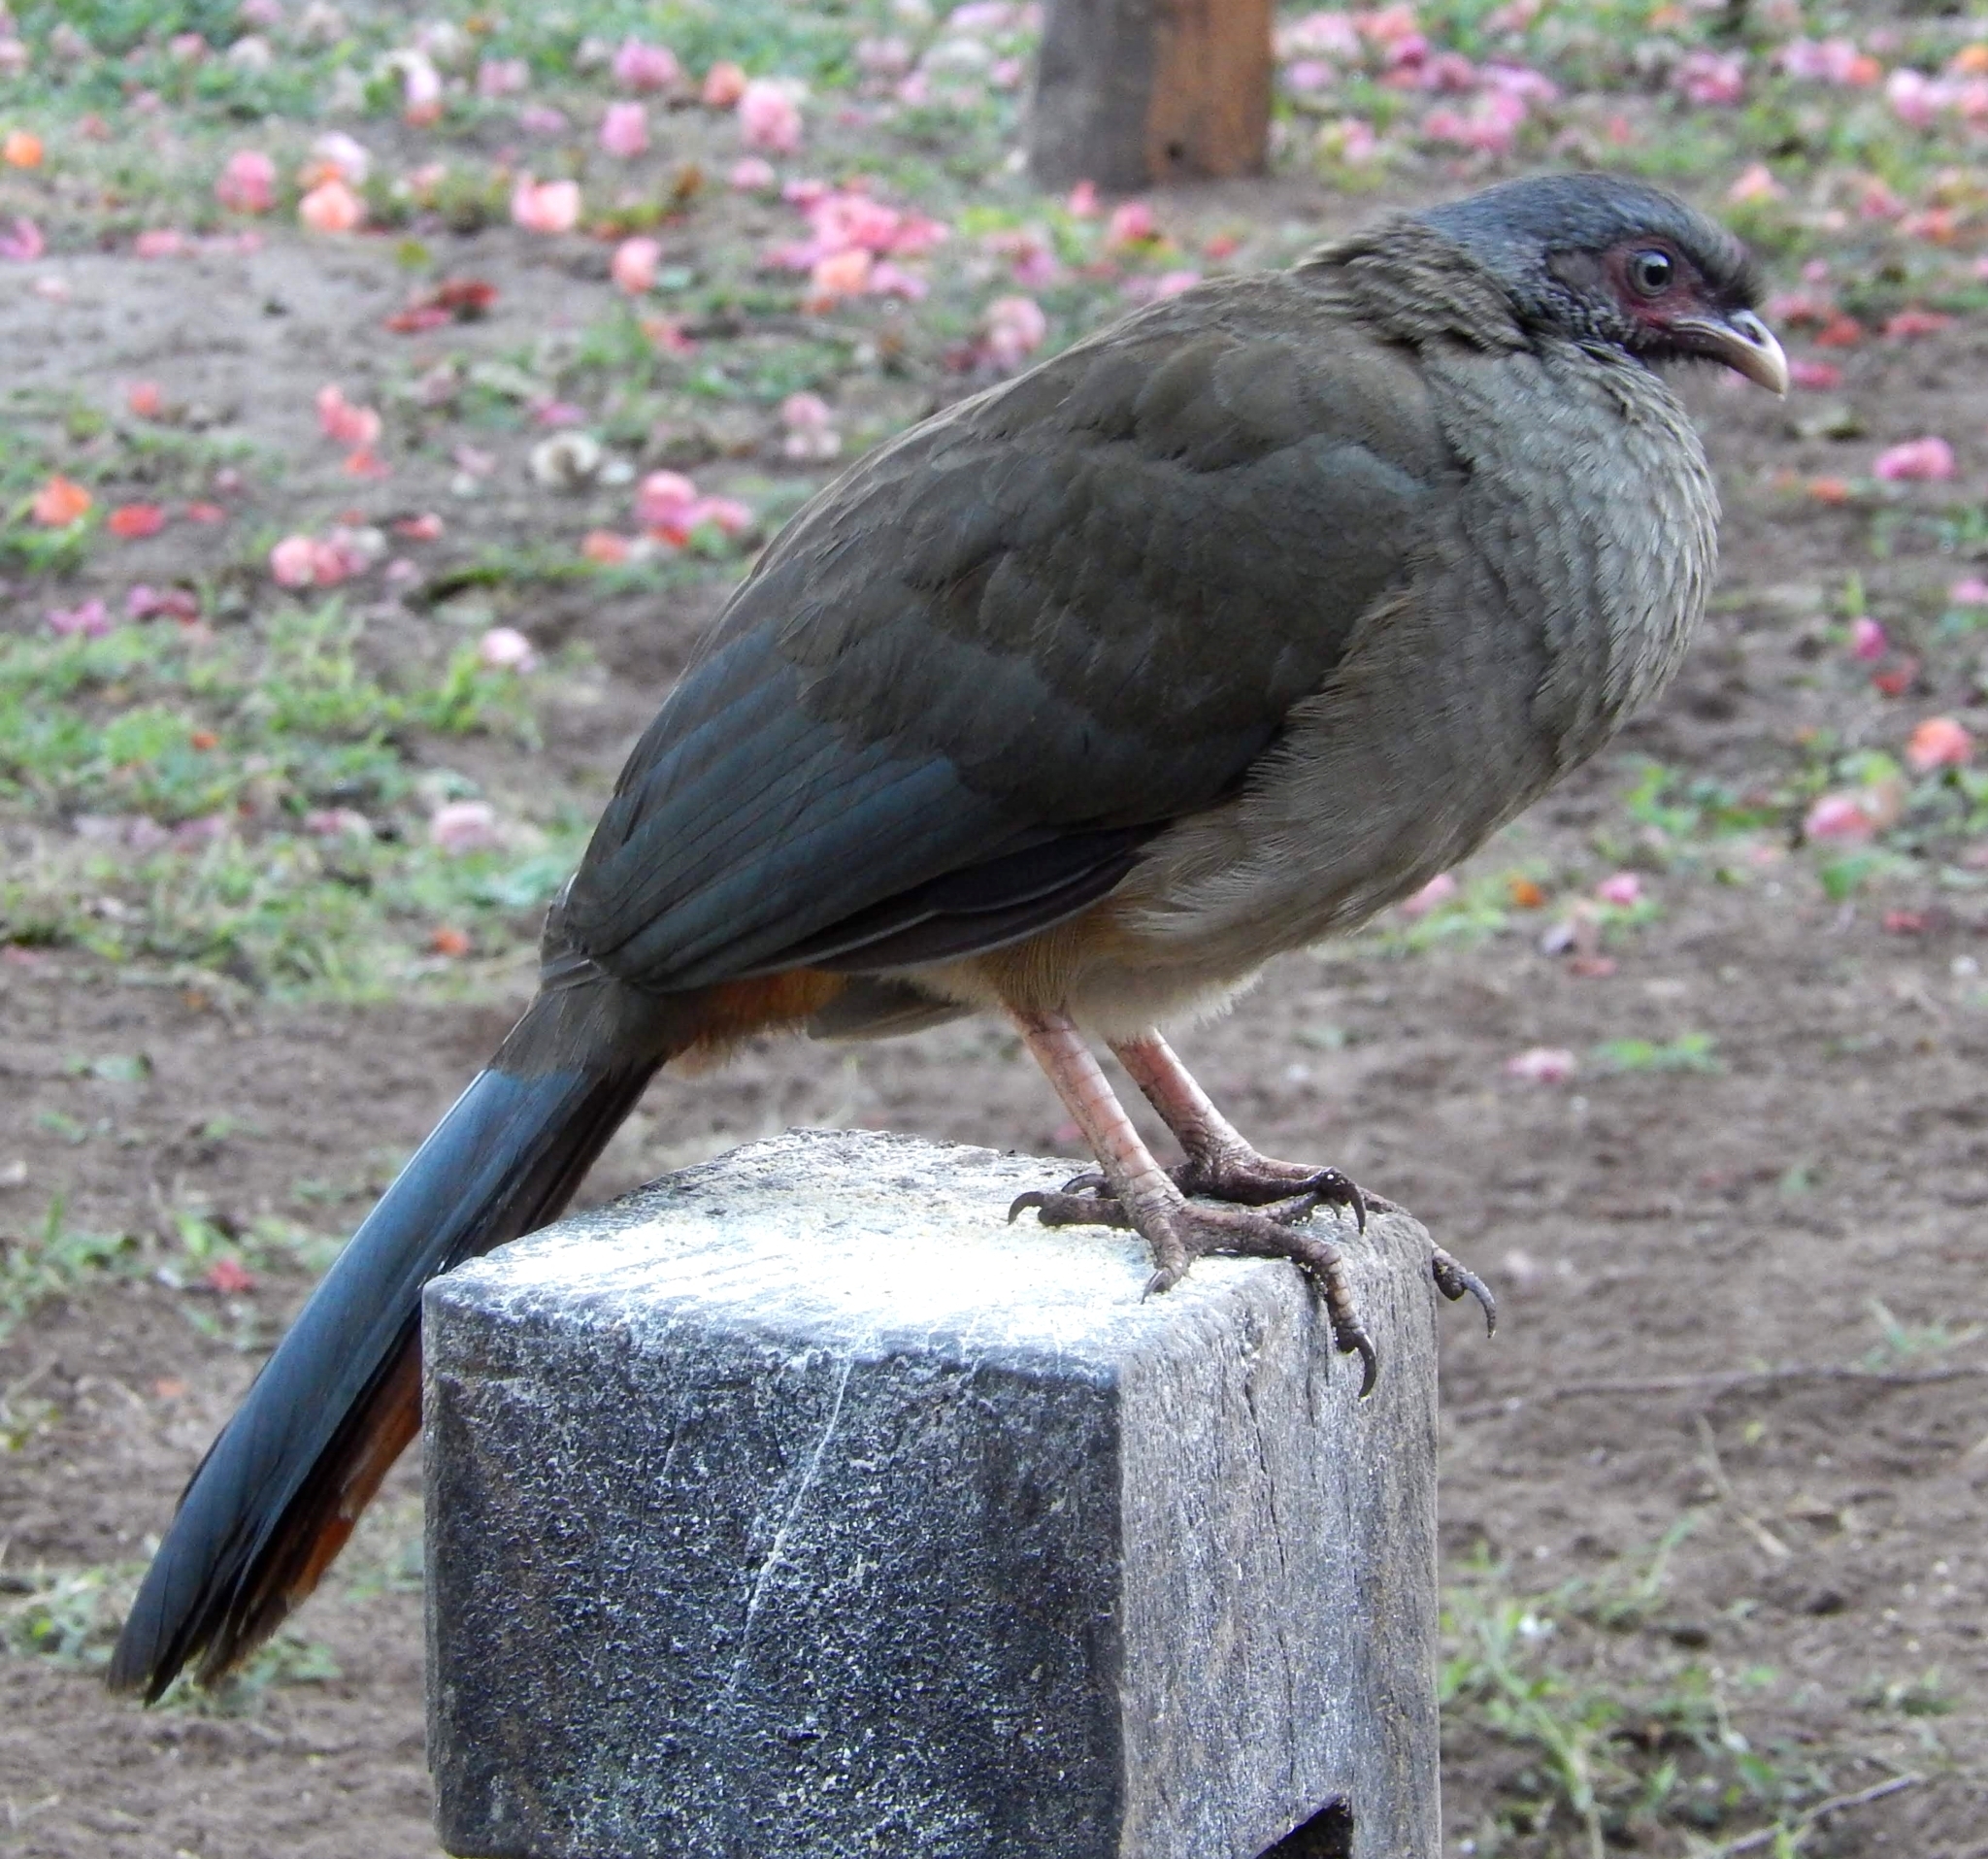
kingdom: Animalia
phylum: Chordata
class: Aves
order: Galliformes
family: Cracidae
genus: Ortalis
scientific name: Ortalis canicollis
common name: Chaco chachalaca
